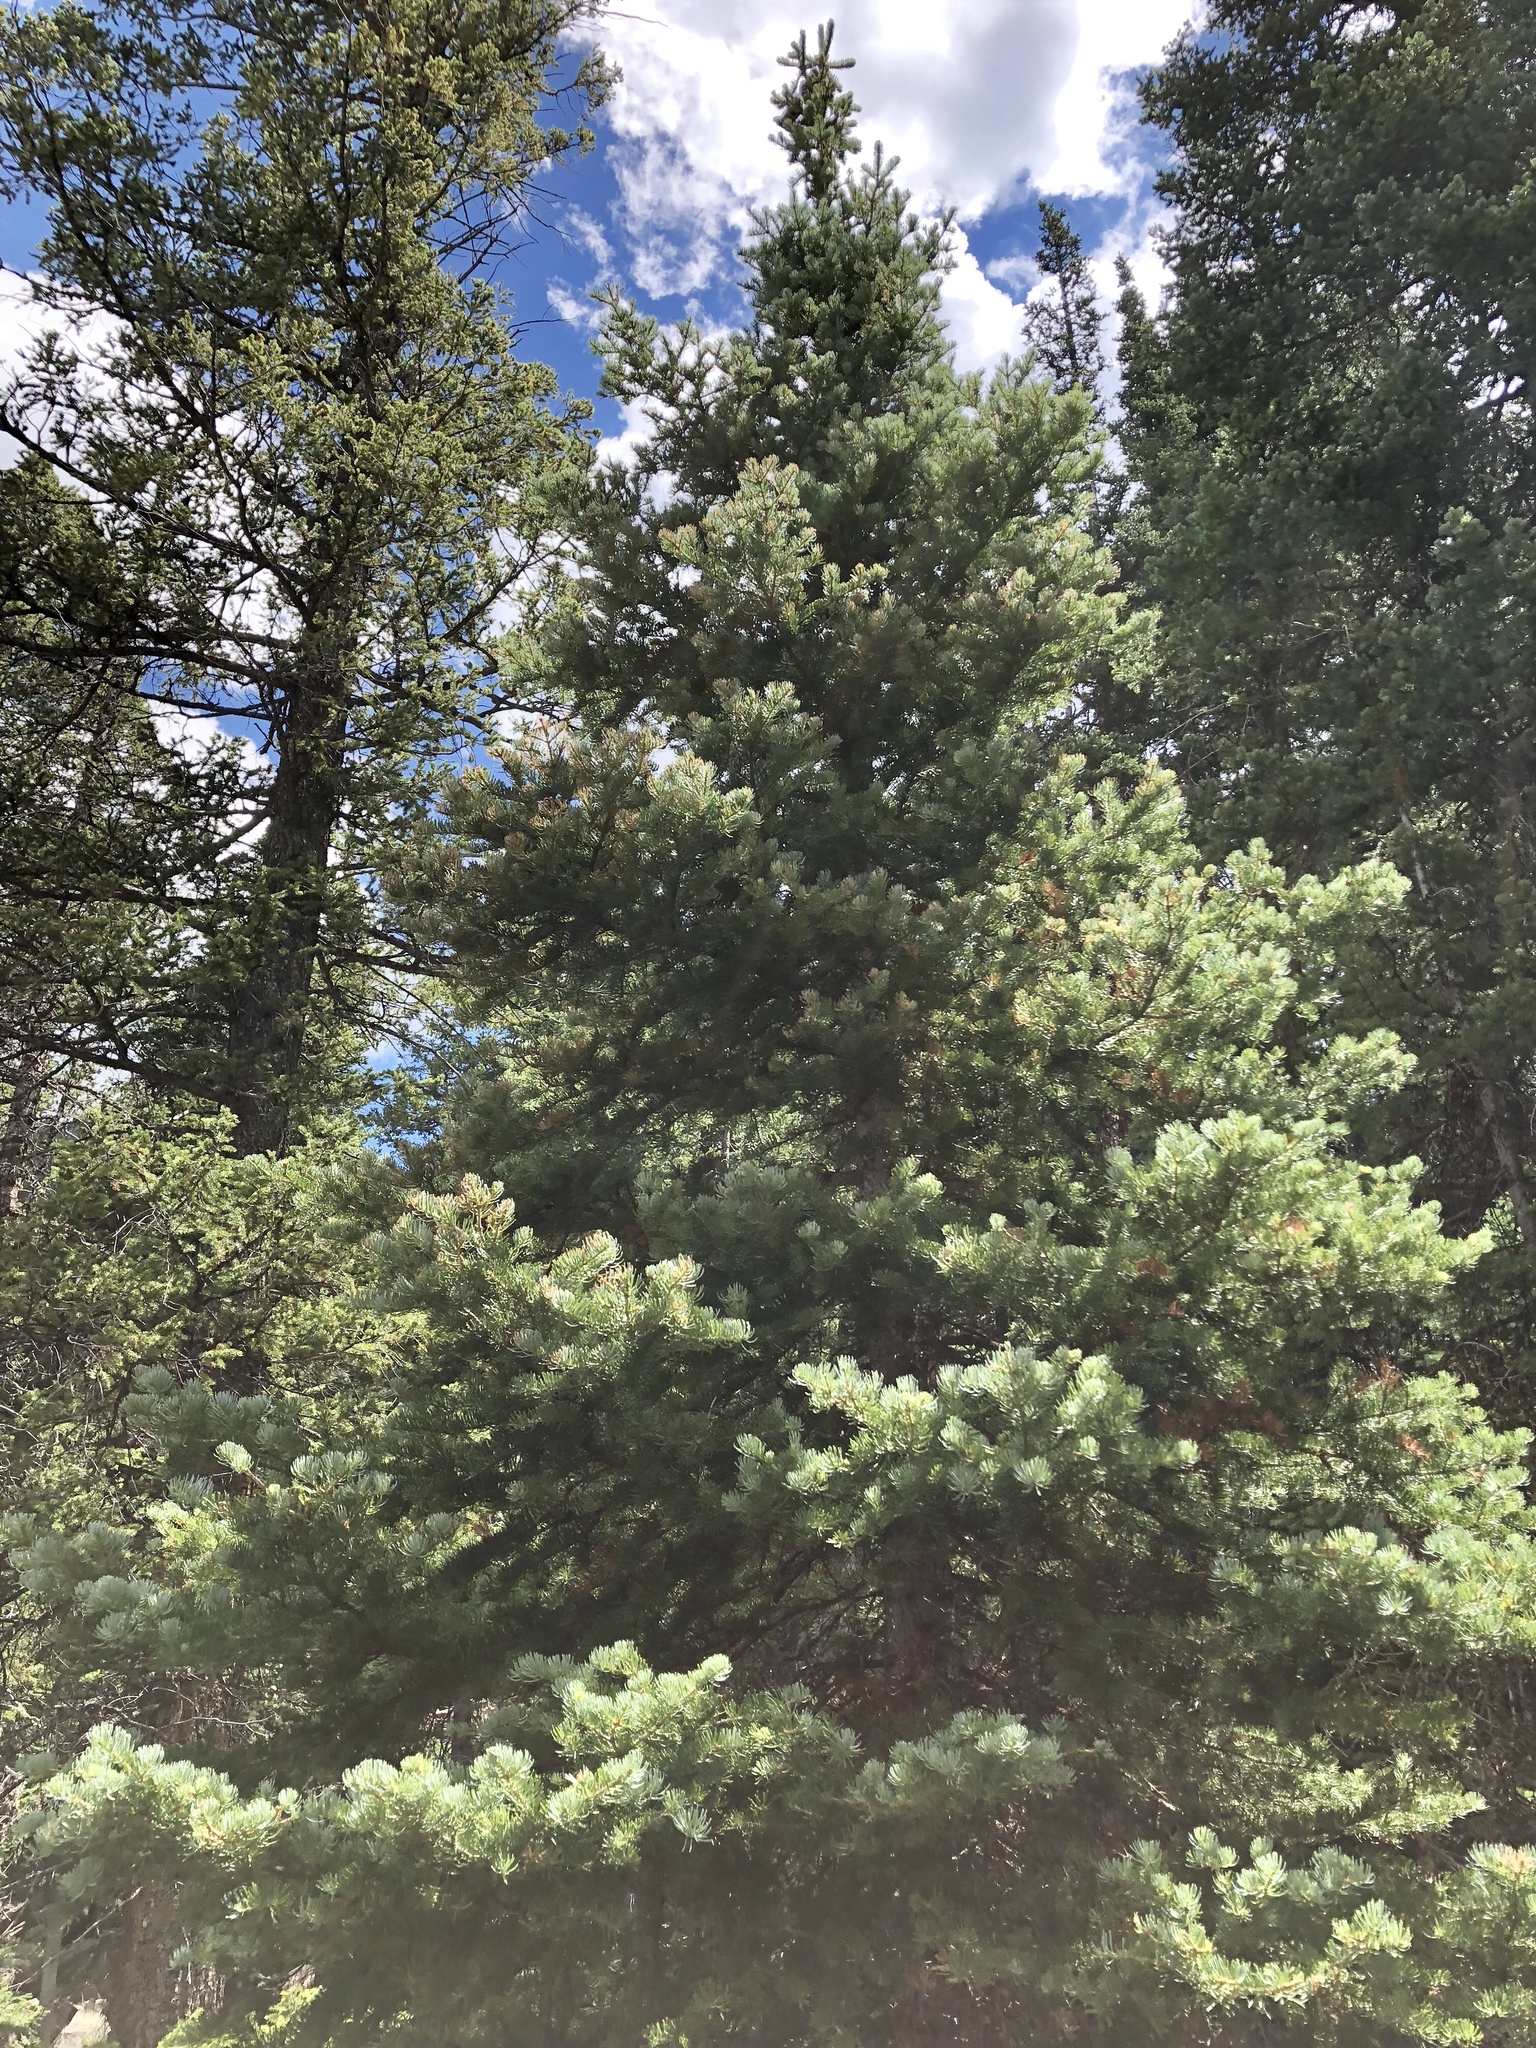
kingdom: Plantae
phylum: Tracheophyta
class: Pinopsida
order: Pinales
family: Pinaceae
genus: Abies
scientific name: Abies lasiocarpa
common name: Subalpine fir
